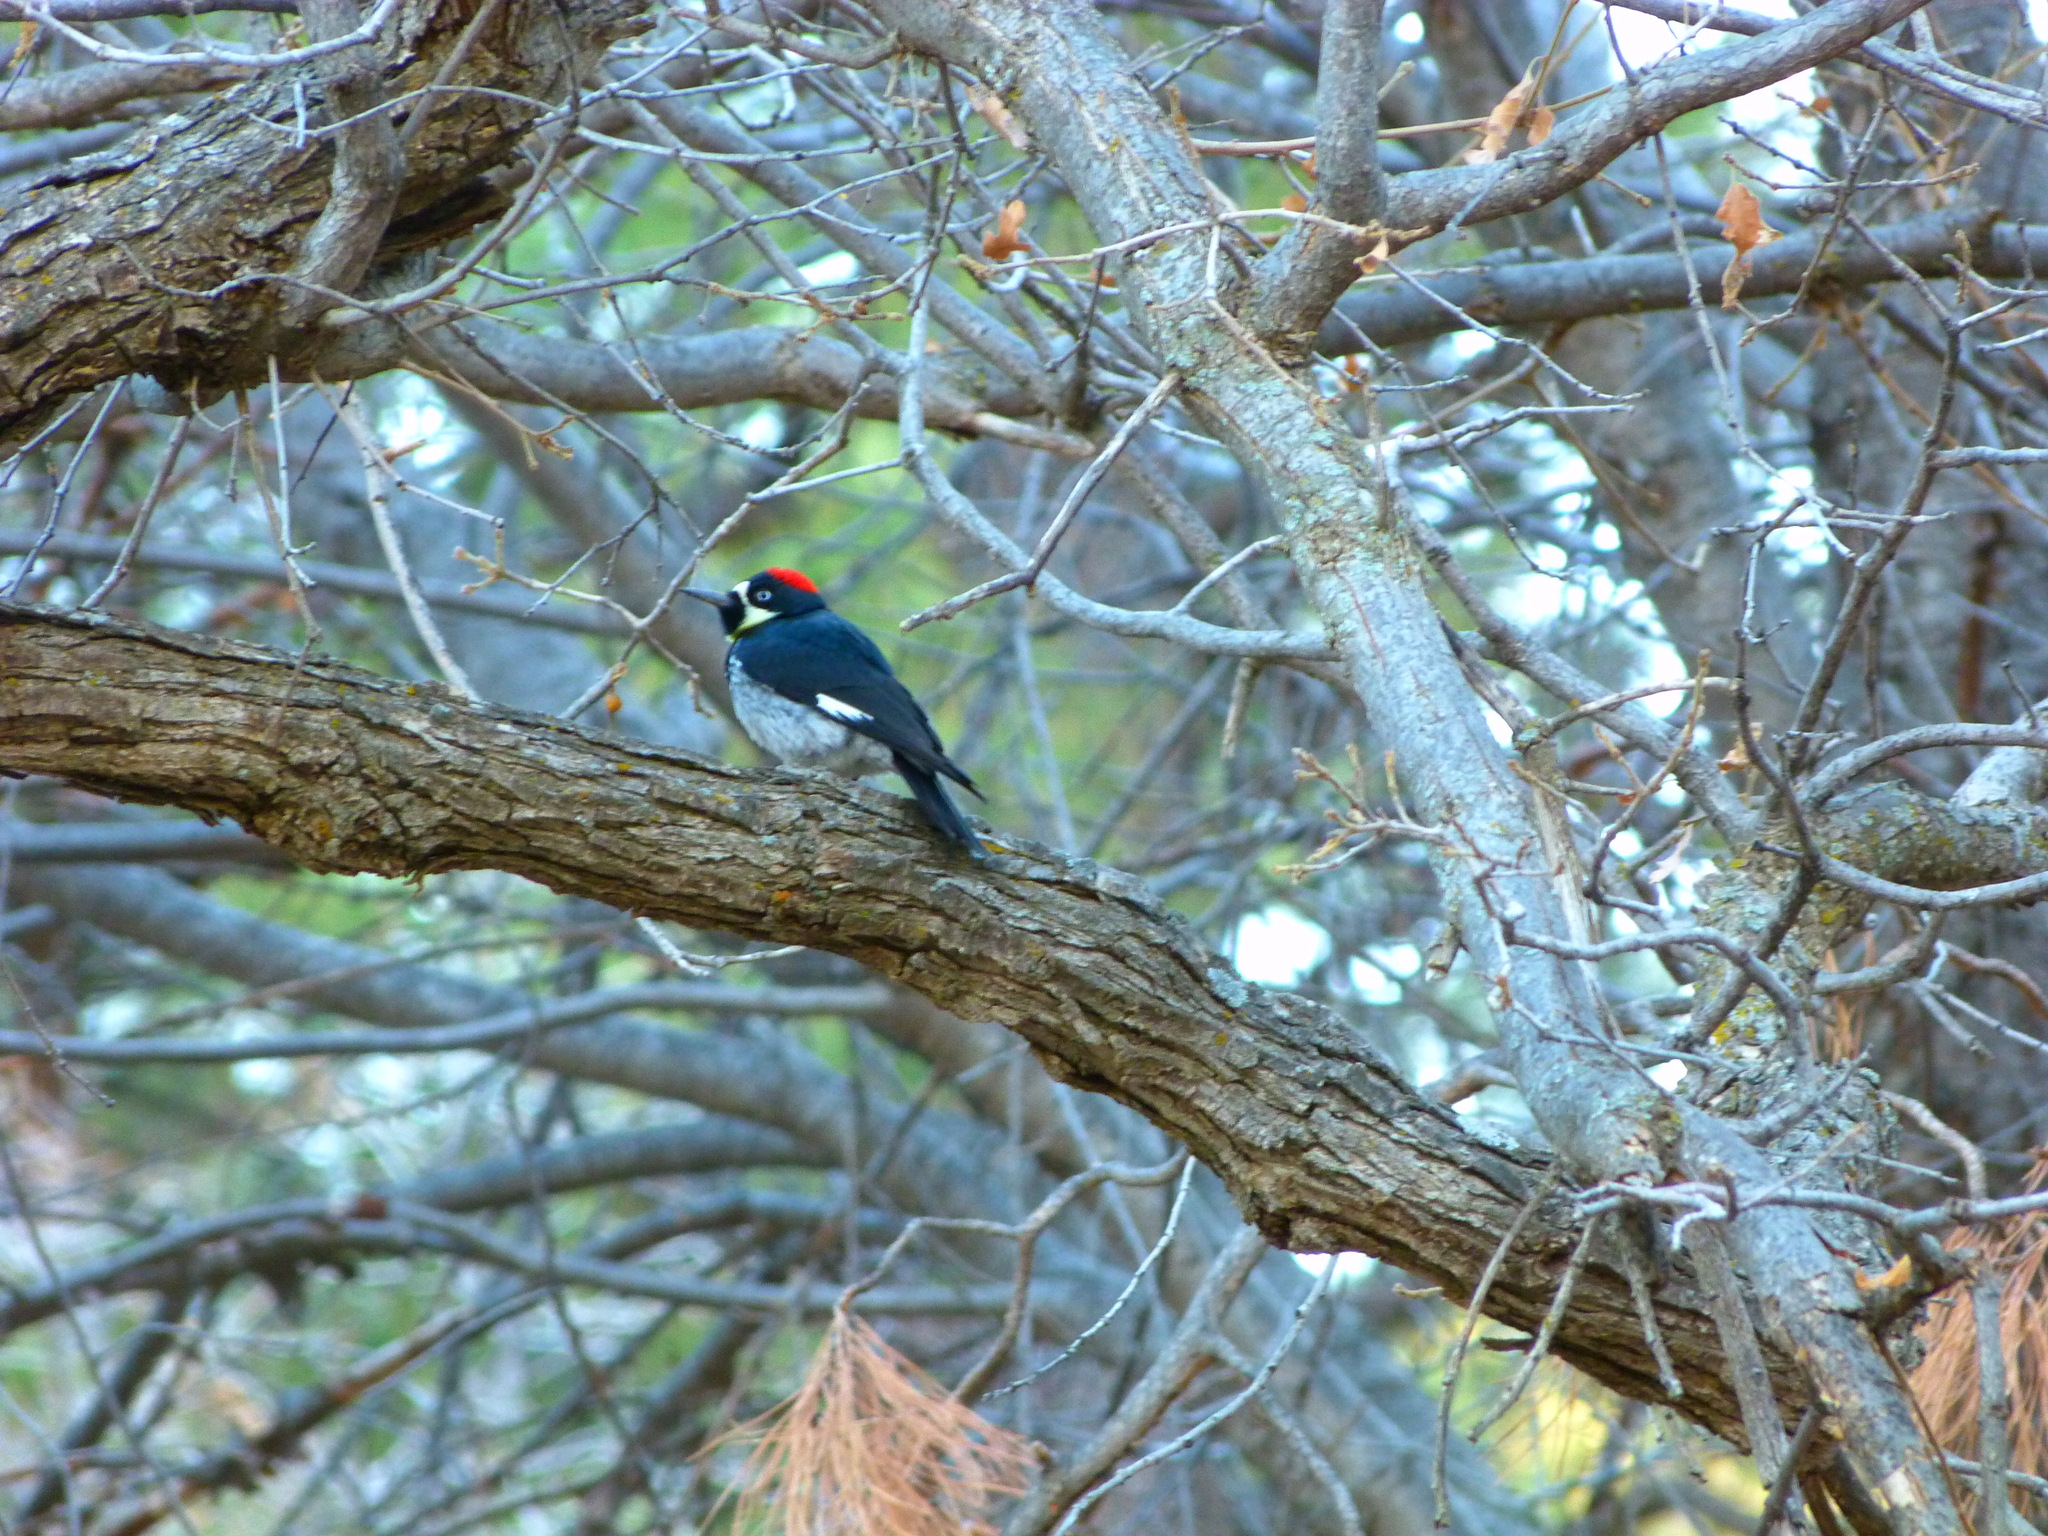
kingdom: Animalia
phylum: Chordata
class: Aves
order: Piciformes
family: Picidae
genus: Melanerpes
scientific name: Melanerpes formicivorus
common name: Acorn woodpecker
